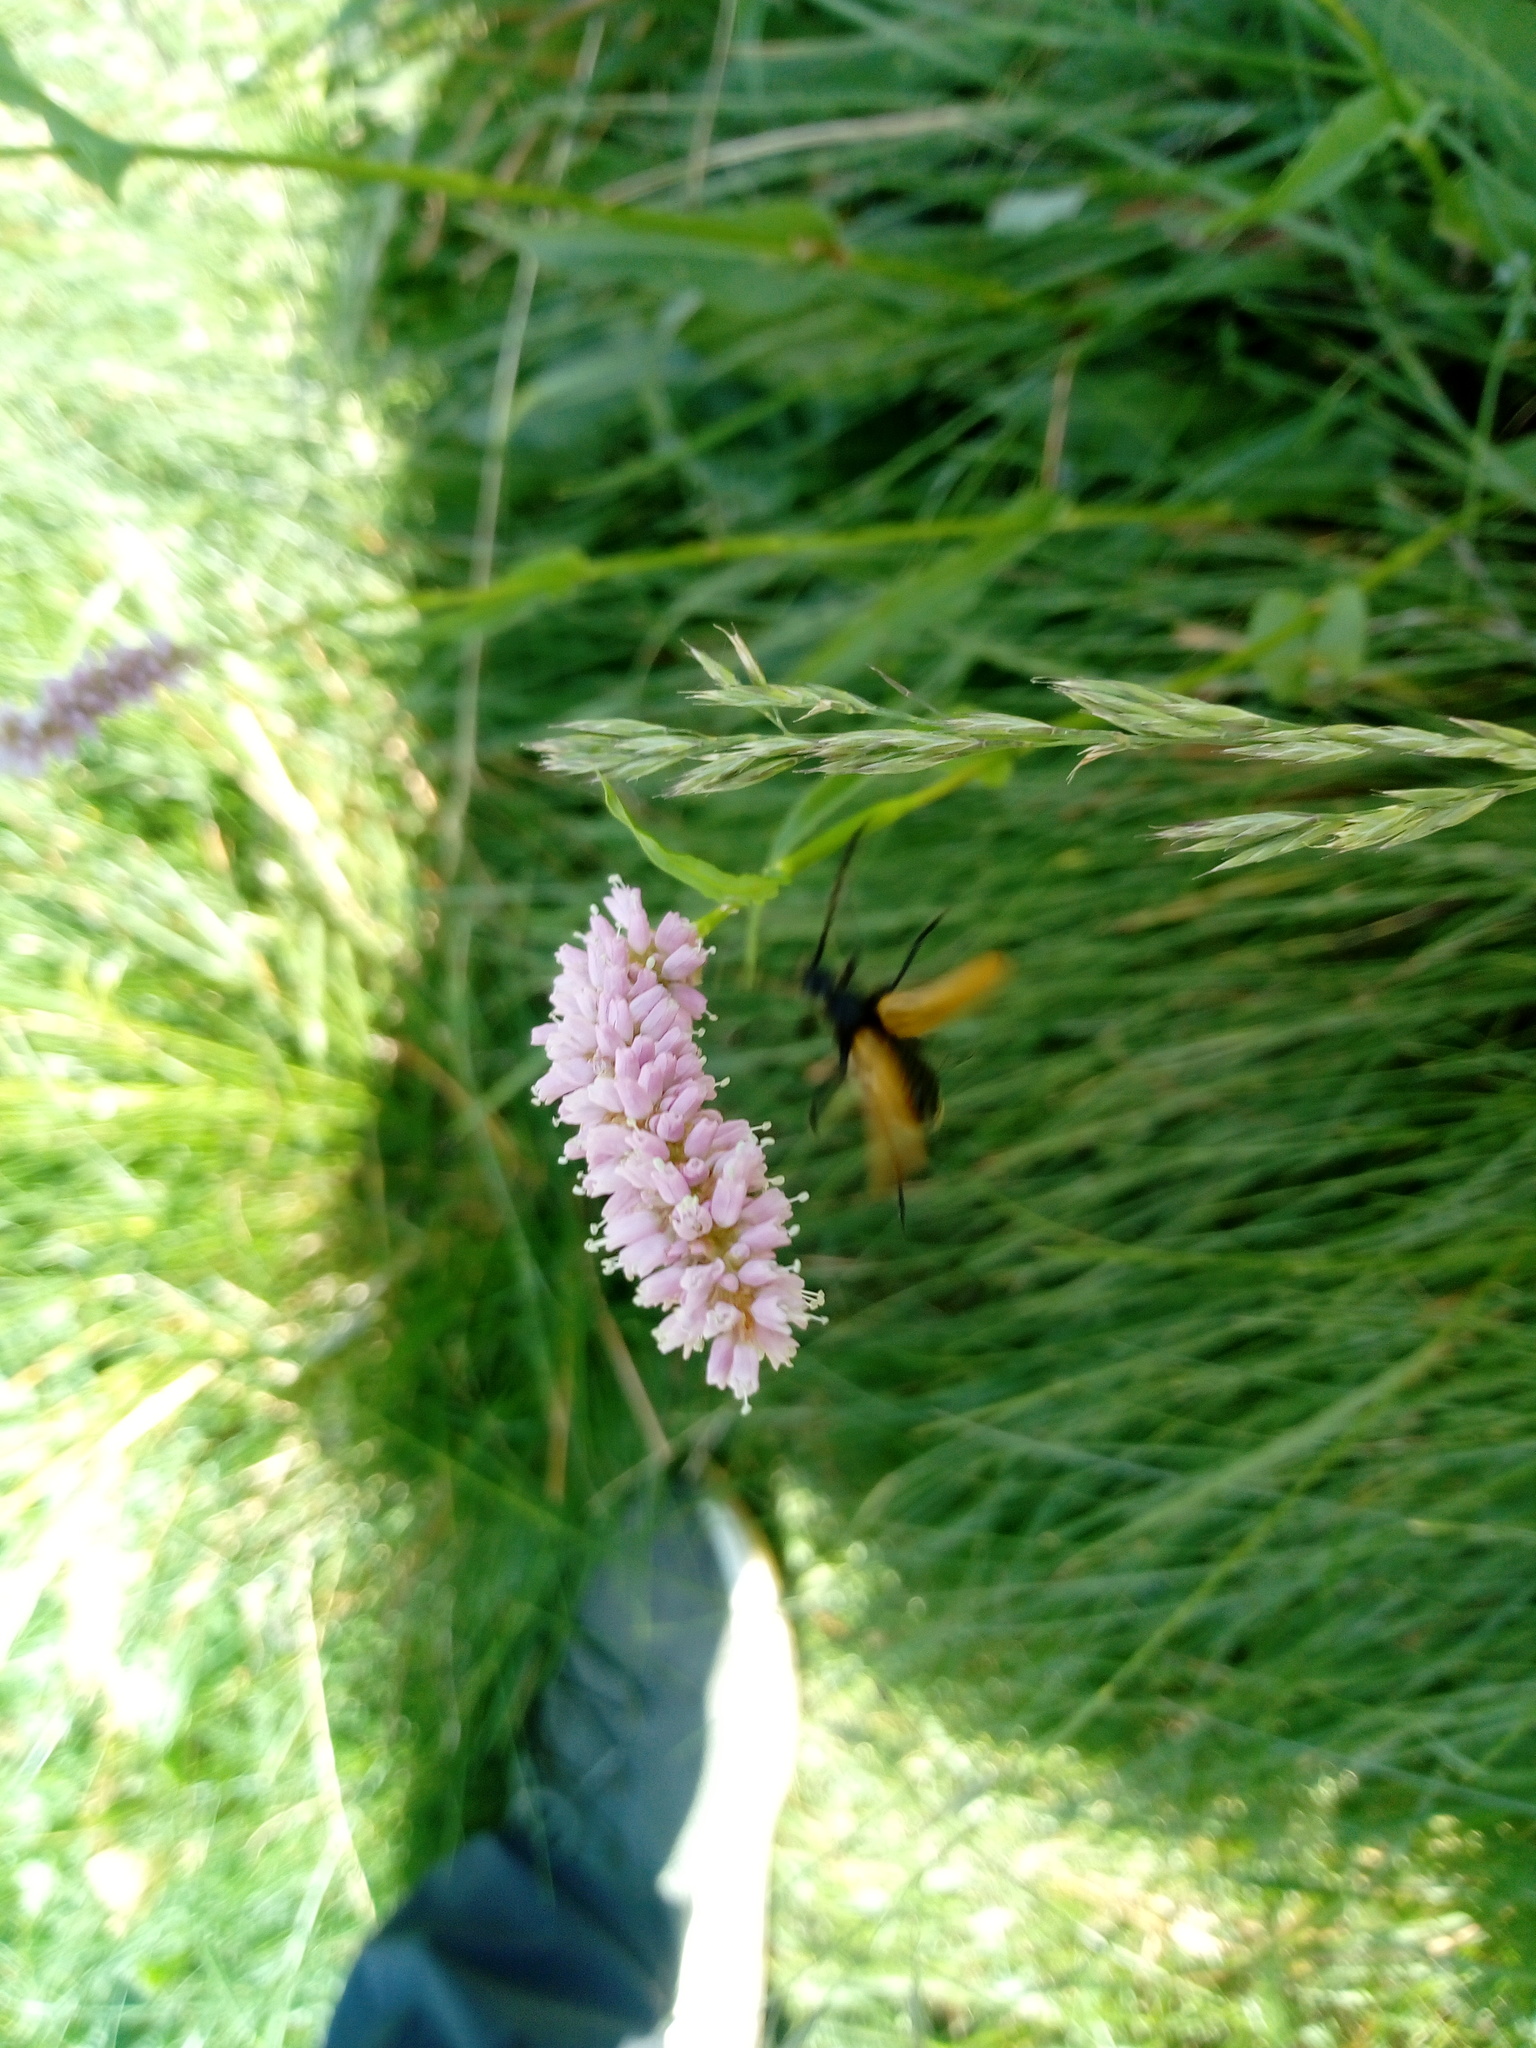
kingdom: Animalia
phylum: Arthropoda
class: Insecta
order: Coleoptera
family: Cerambycidae
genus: Paracorymbia
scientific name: Paracorymbia maculicornis
